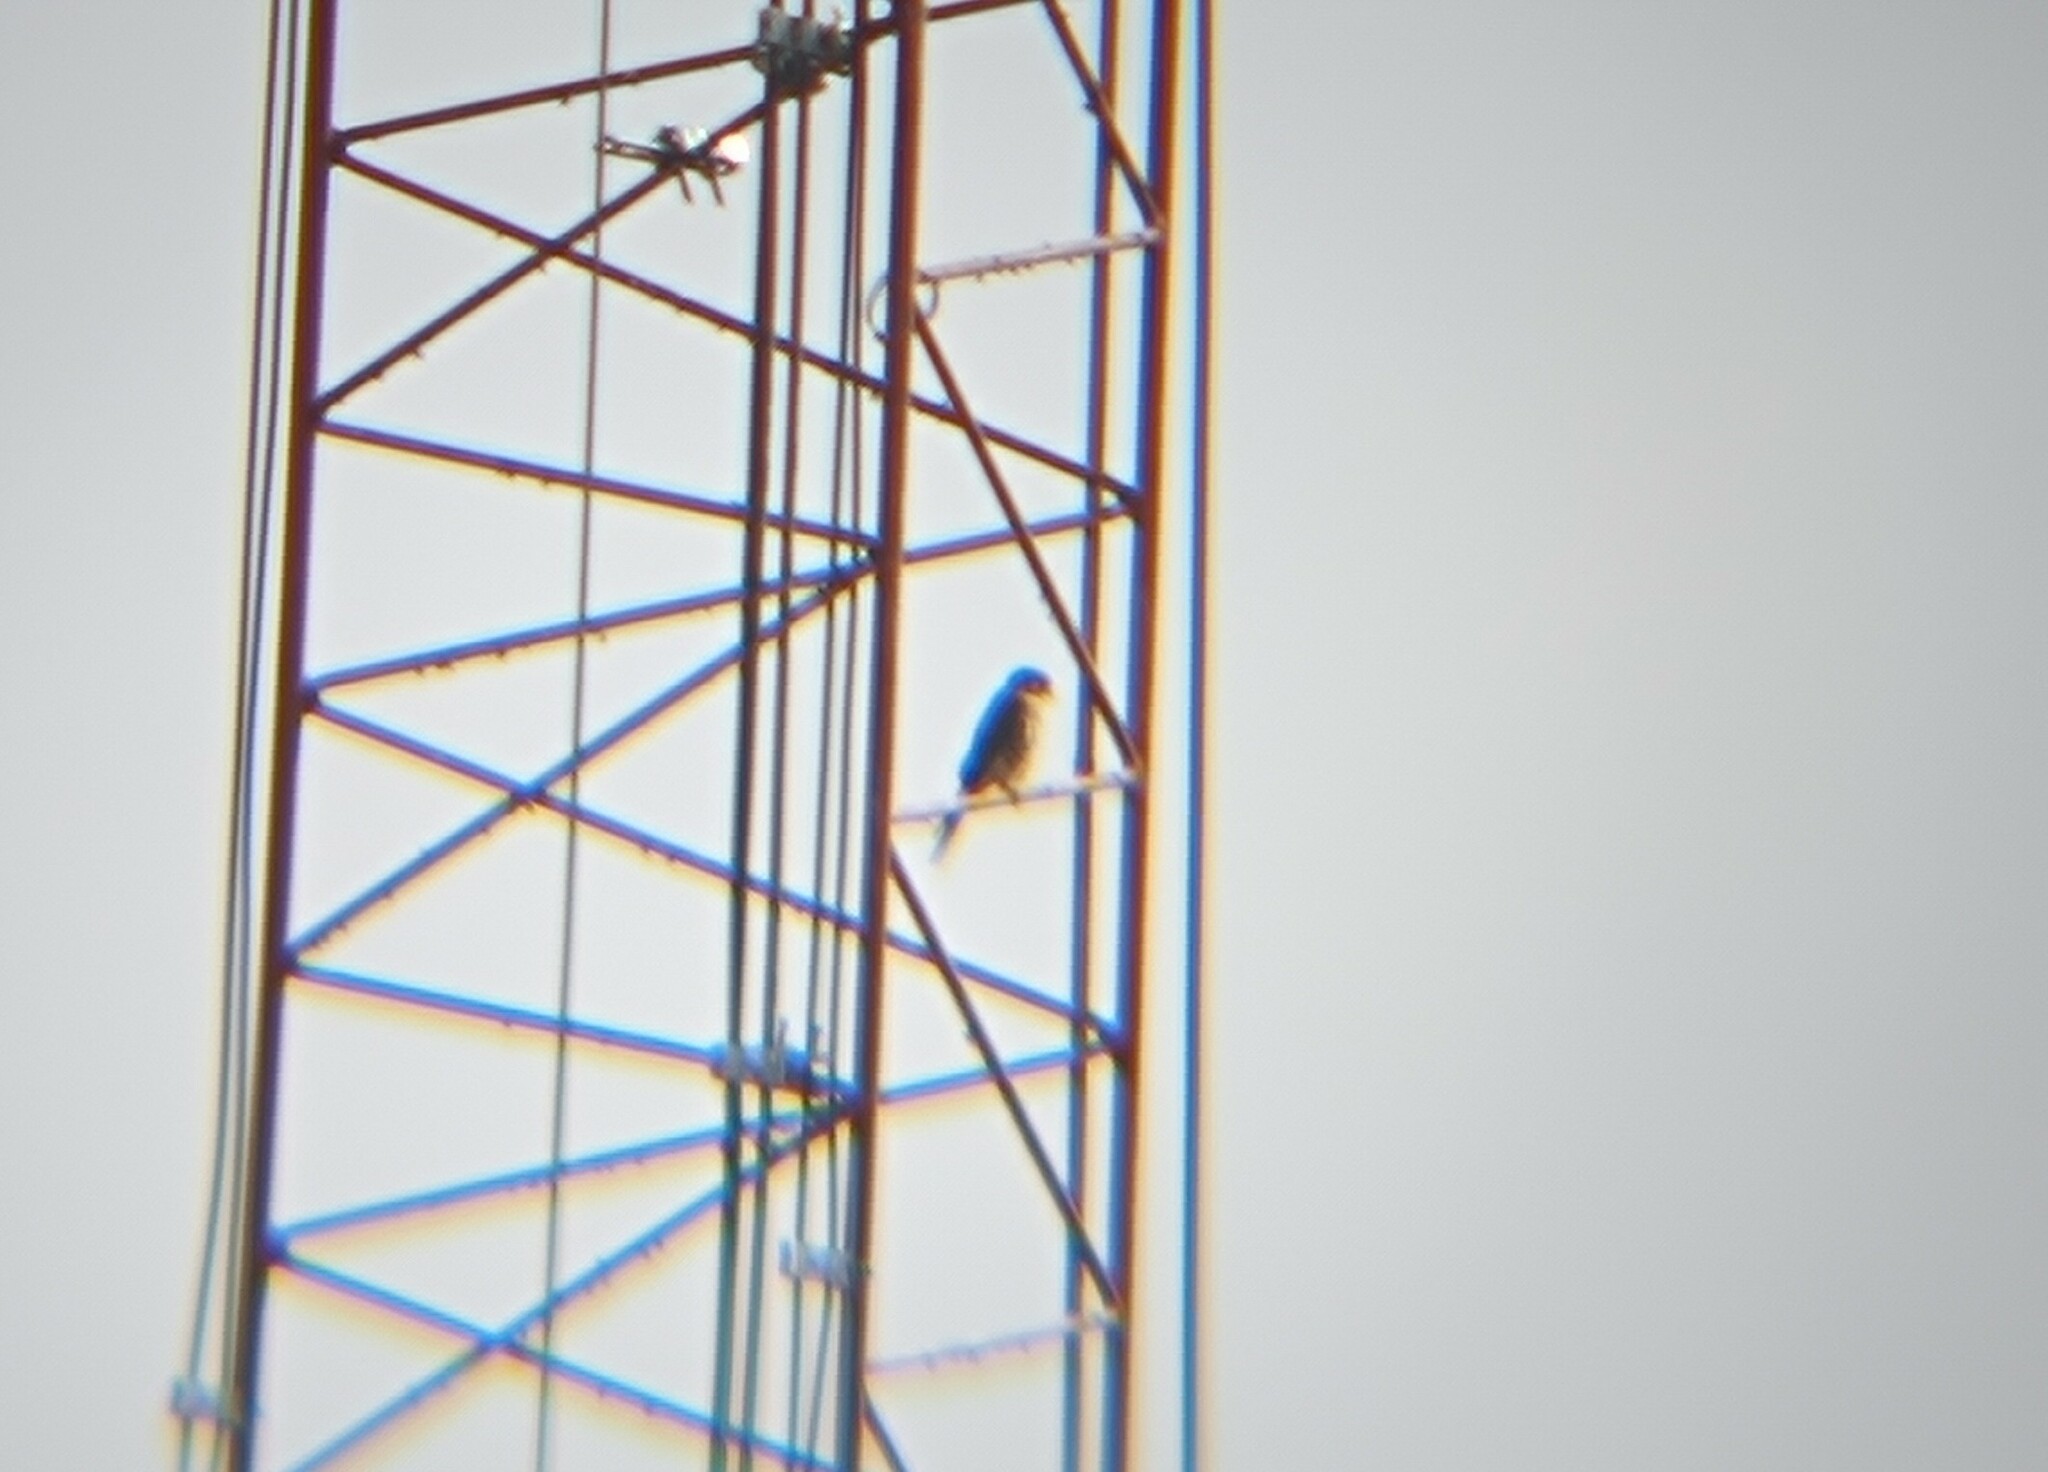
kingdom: Animalia
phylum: Chordata
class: Aves
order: Falconiformes
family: Falconidae
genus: Falco
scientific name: Falco columbarius
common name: Merlin
